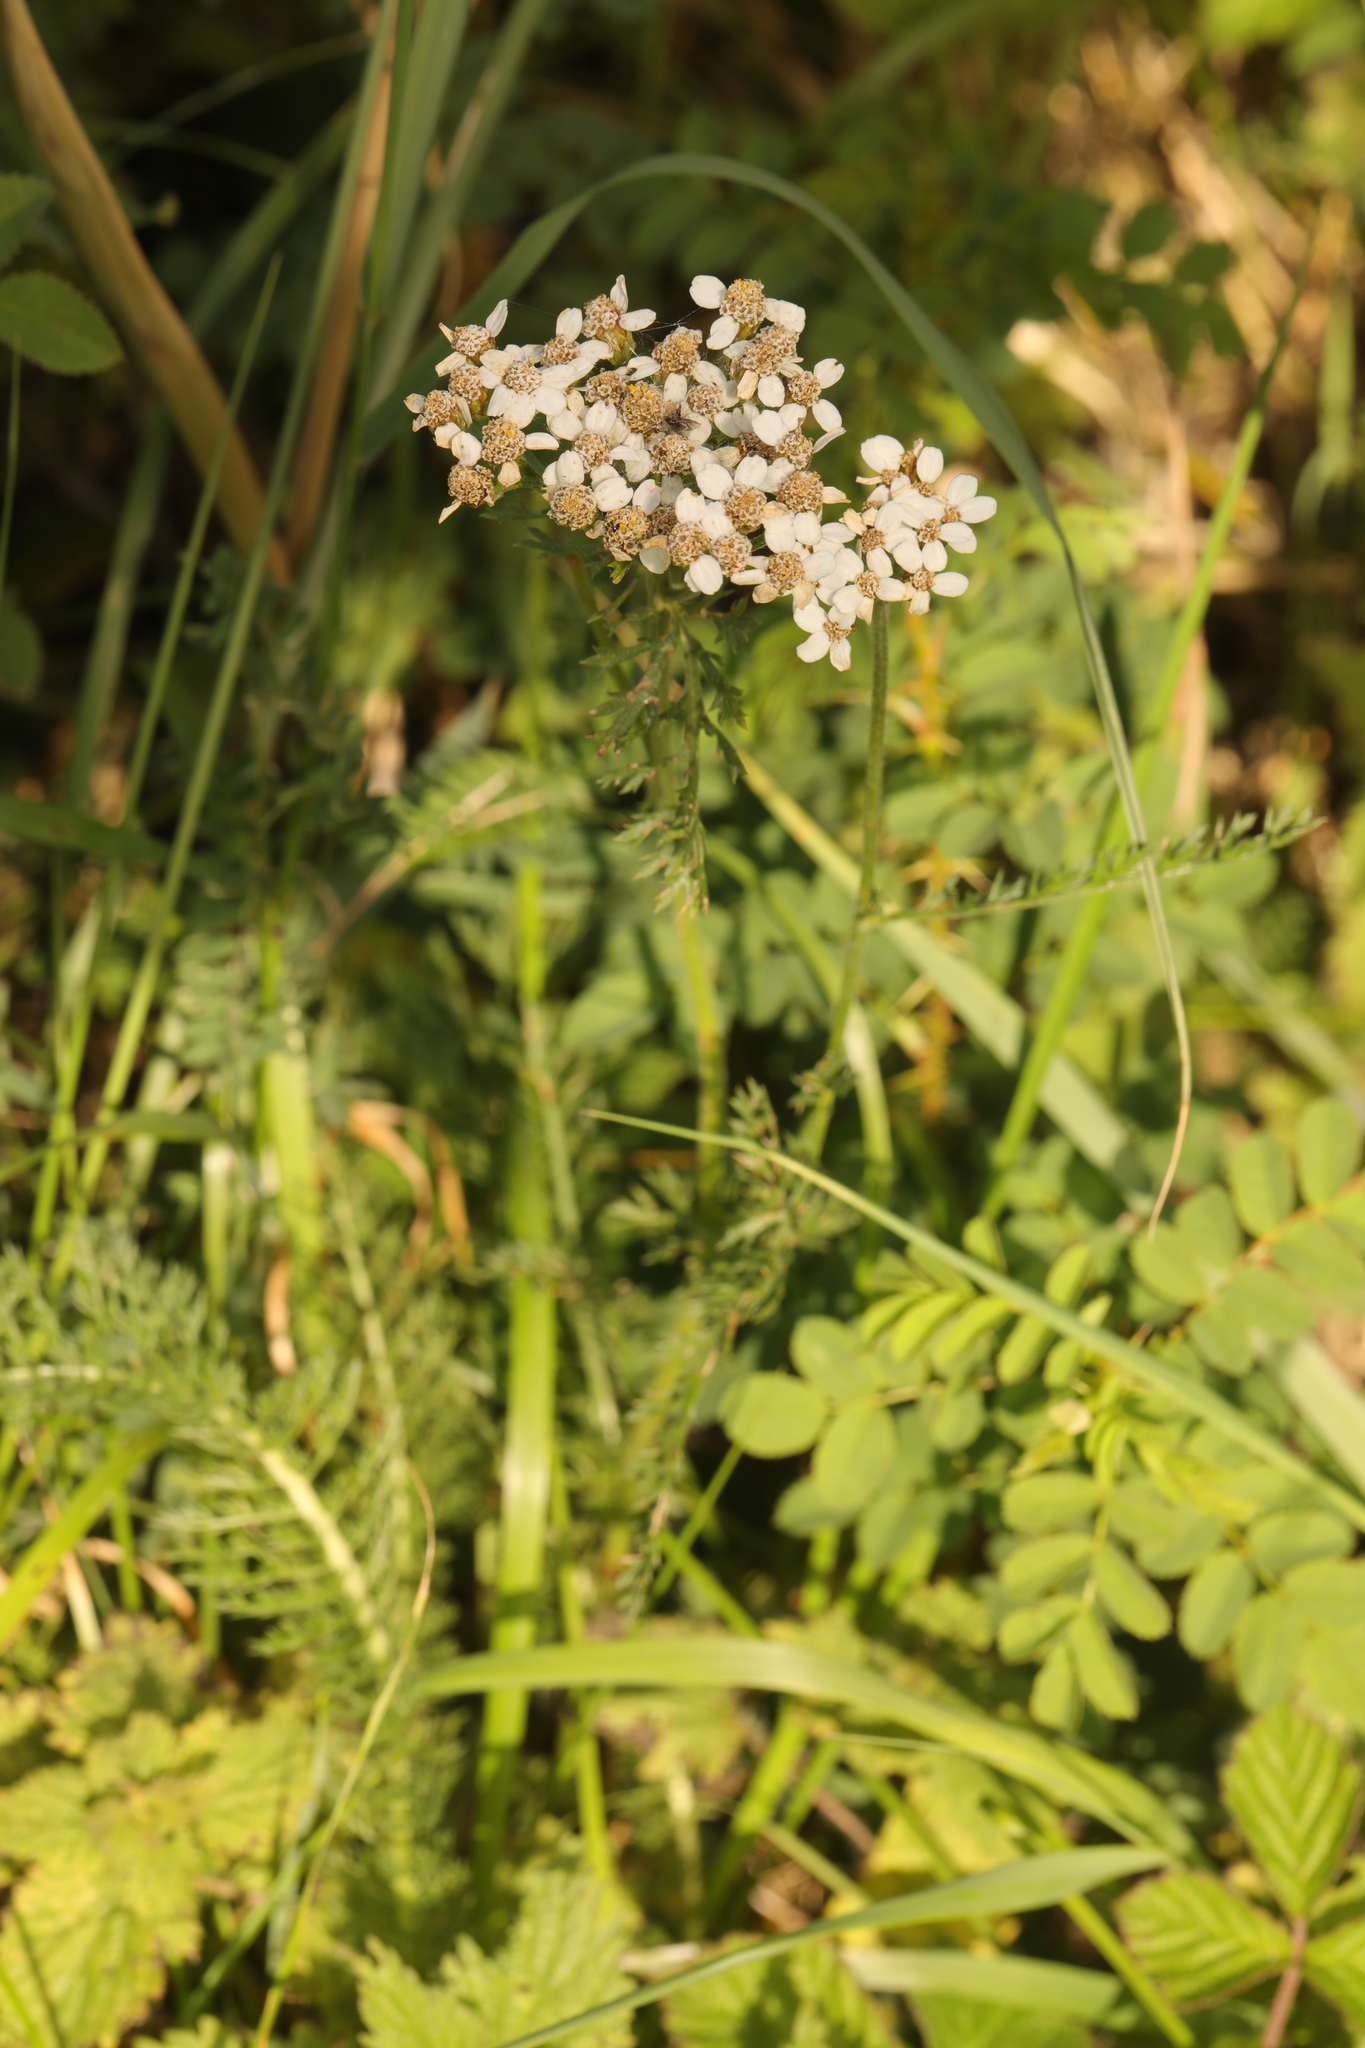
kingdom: Plantae
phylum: Tracheophyta
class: Magnoliopsida
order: Asterales
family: Asteraceae
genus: Achillea
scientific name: Achillea millefolium
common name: Yarrow
